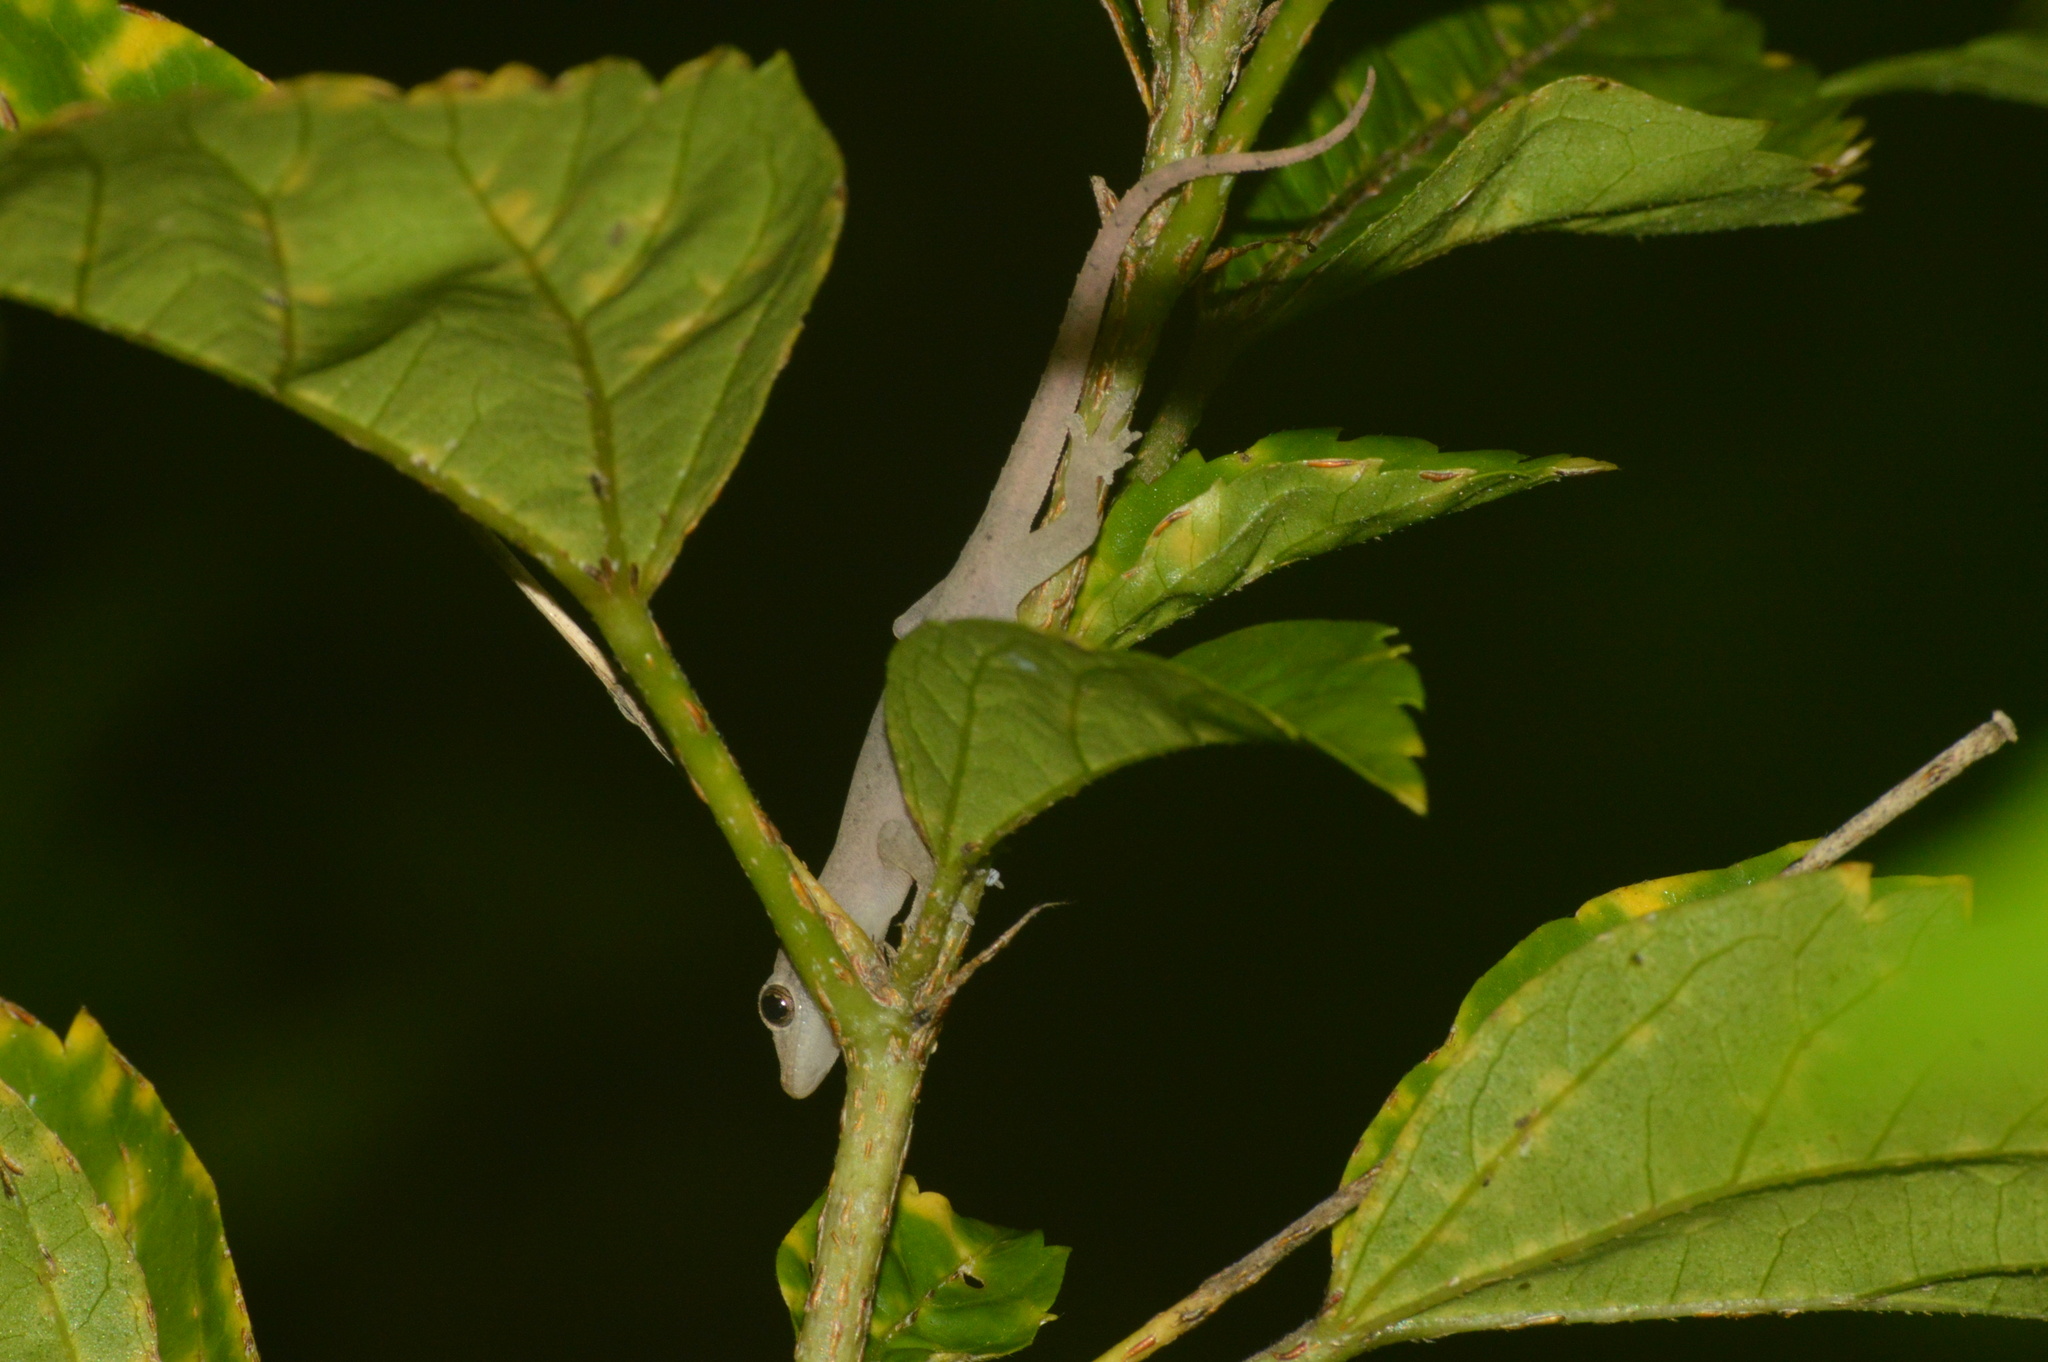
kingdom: Animalia
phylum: Chordata
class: Squamata
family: Gekkonidae
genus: Hemidactylus
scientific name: Hemidactylus frenatus
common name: Common house gecko
